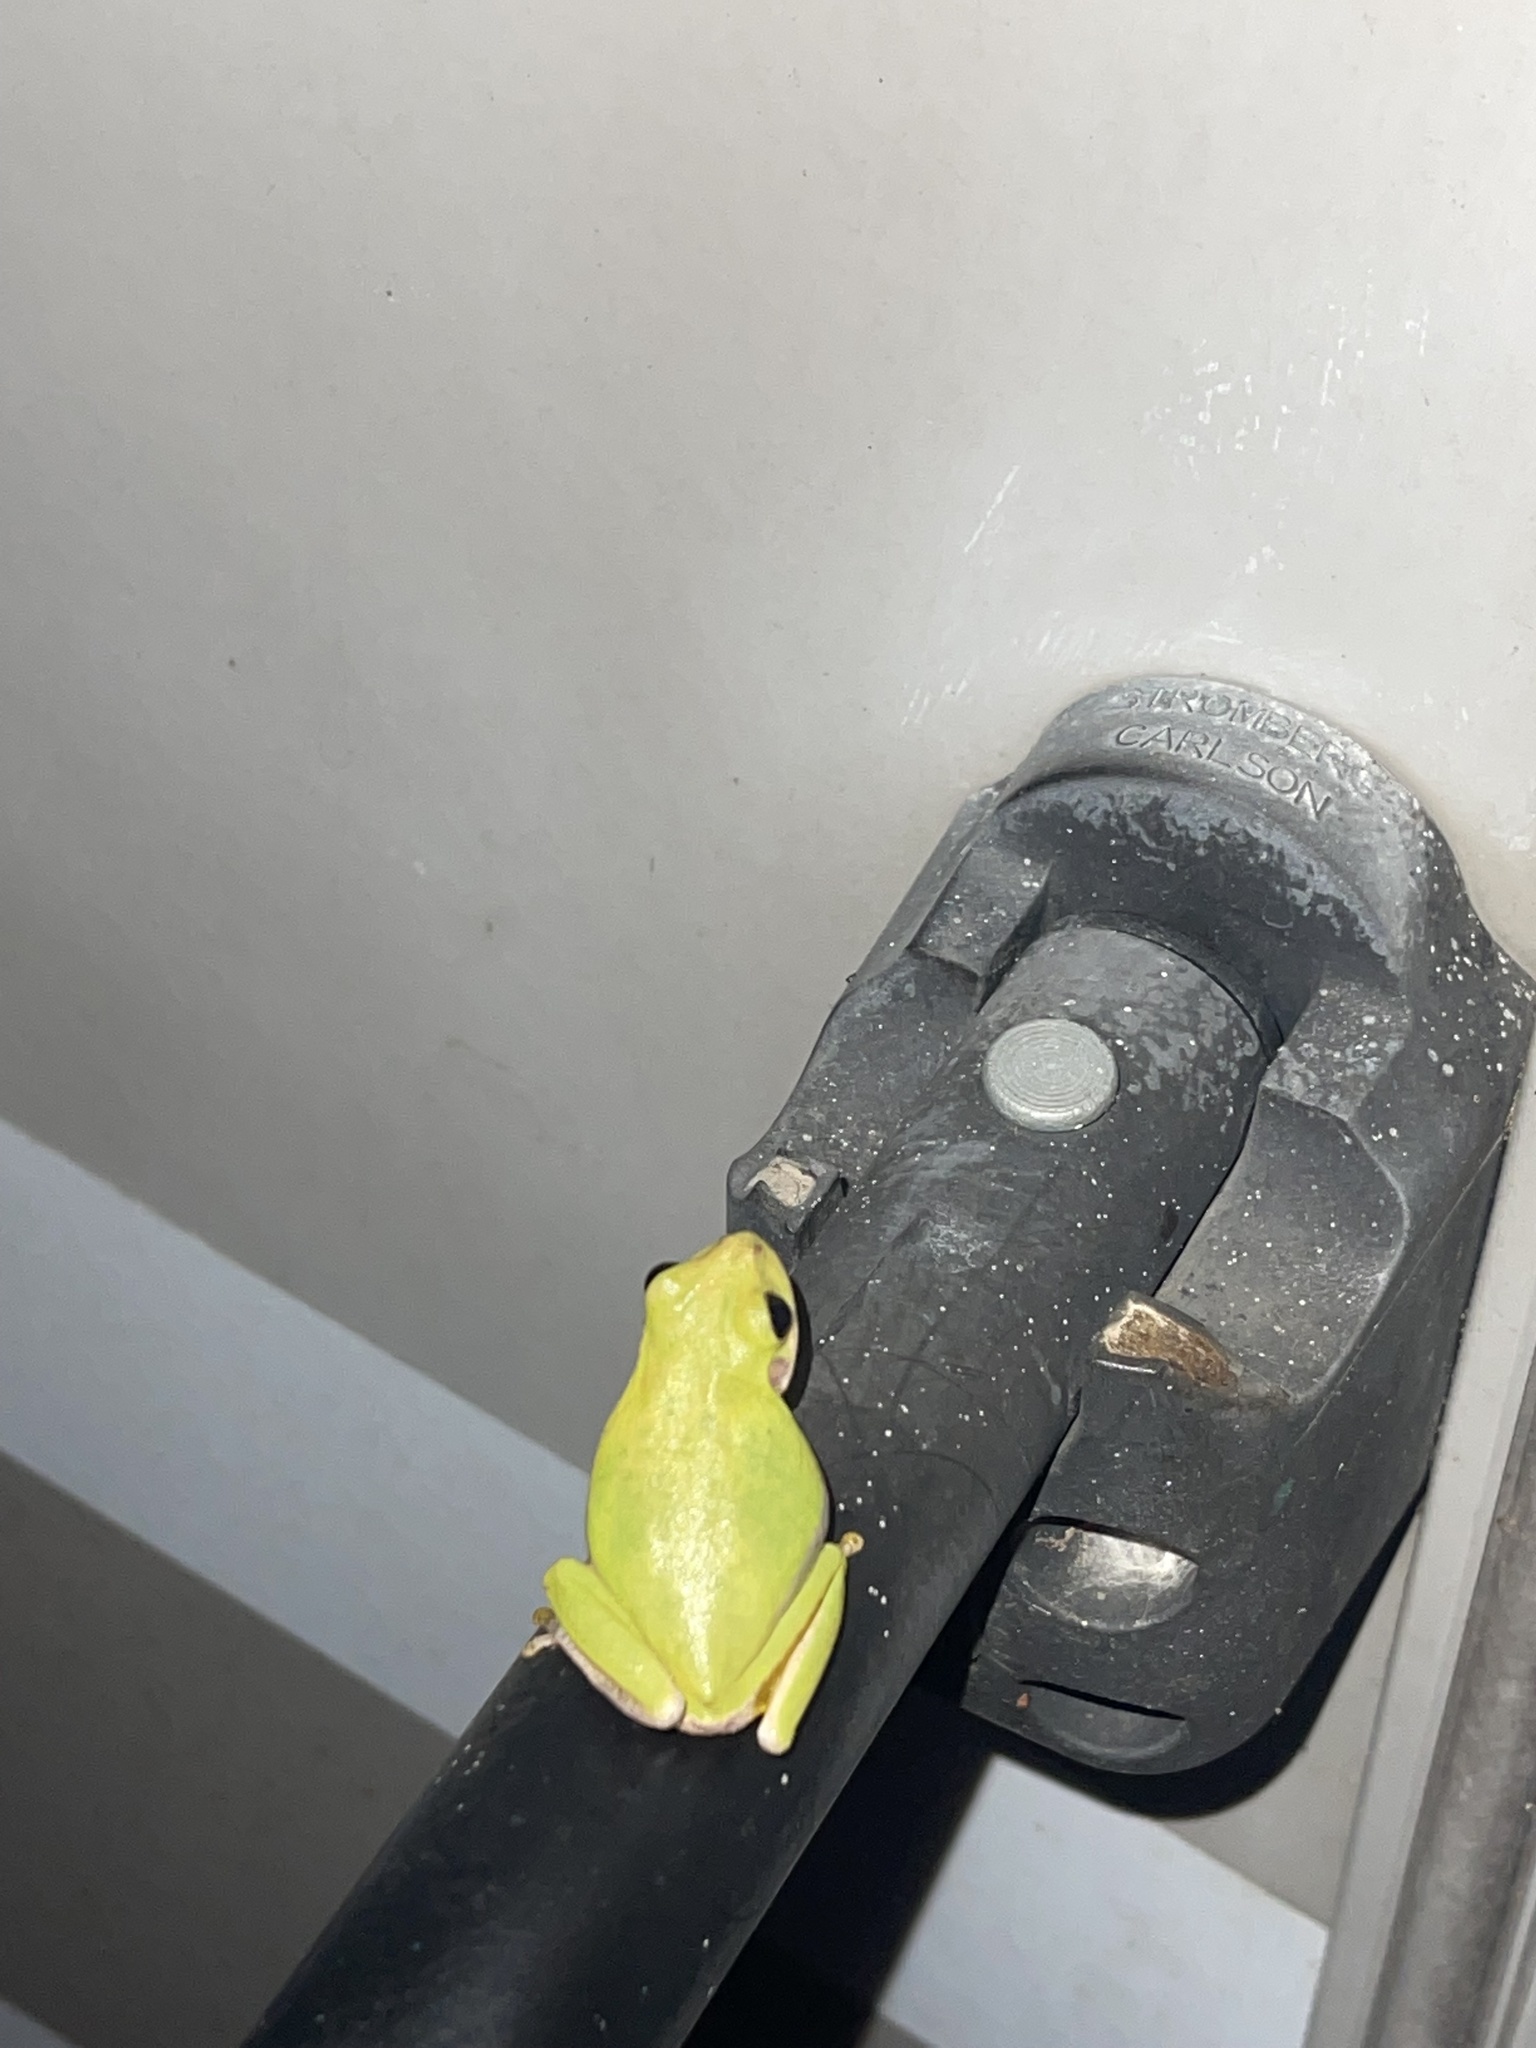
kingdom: Animalia
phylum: Chordata
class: Amphibia
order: Anura
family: Hylidae
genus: Dryophytes
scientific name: Dryophytes squirellus
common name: Squirrel treefrog
